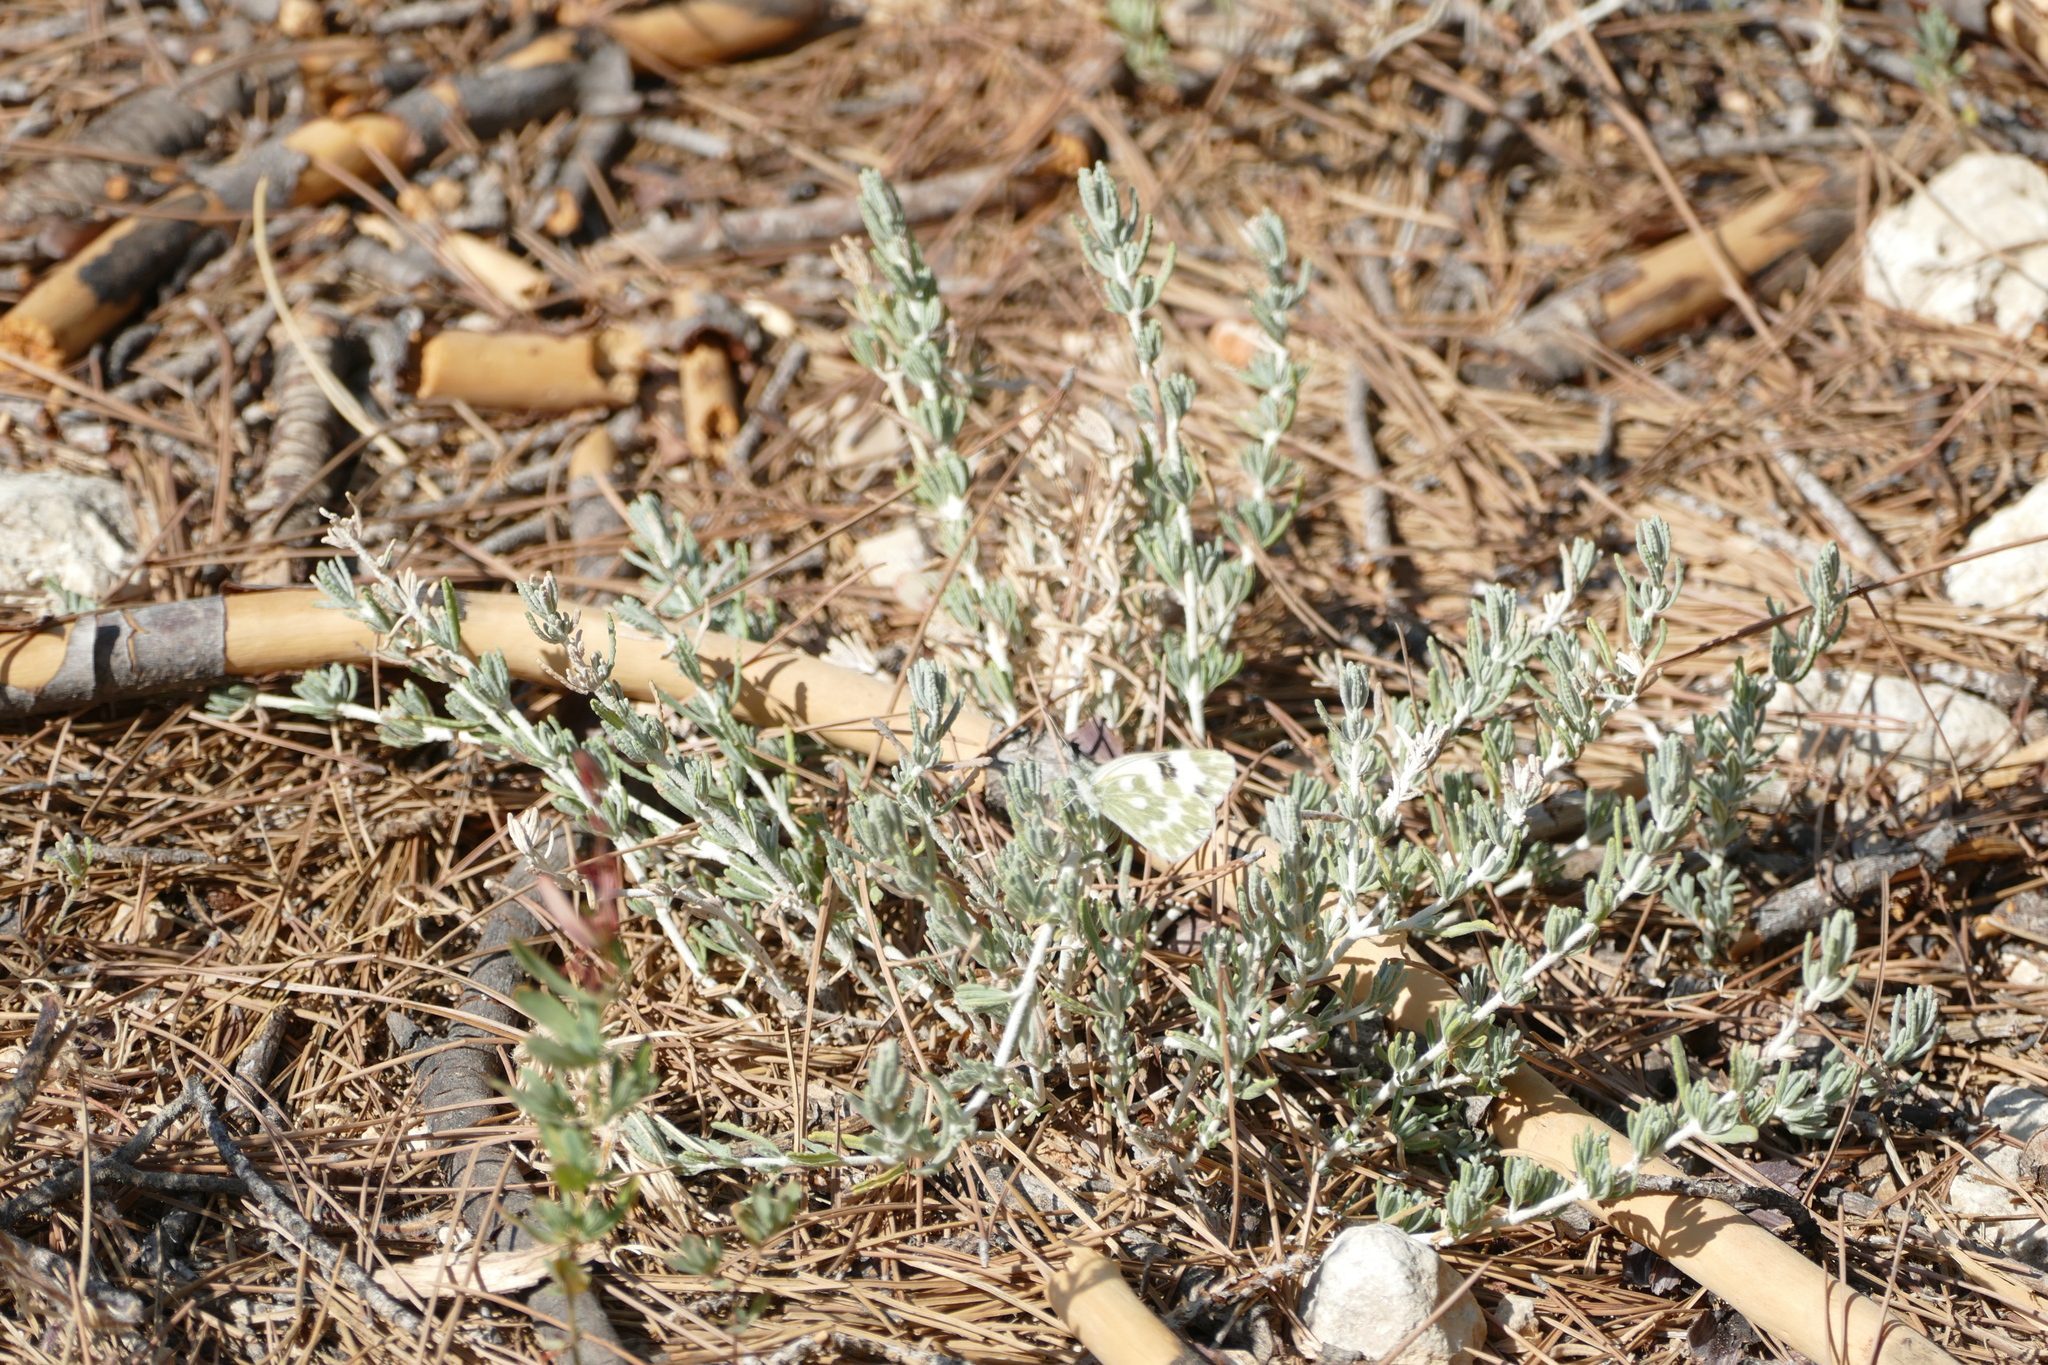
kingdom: Plantae
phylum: Tracheophyta
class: Magnoliopsida
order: Lamiales
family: Lamiaceae
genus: Teucrium
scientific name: Teucrium capitatum
